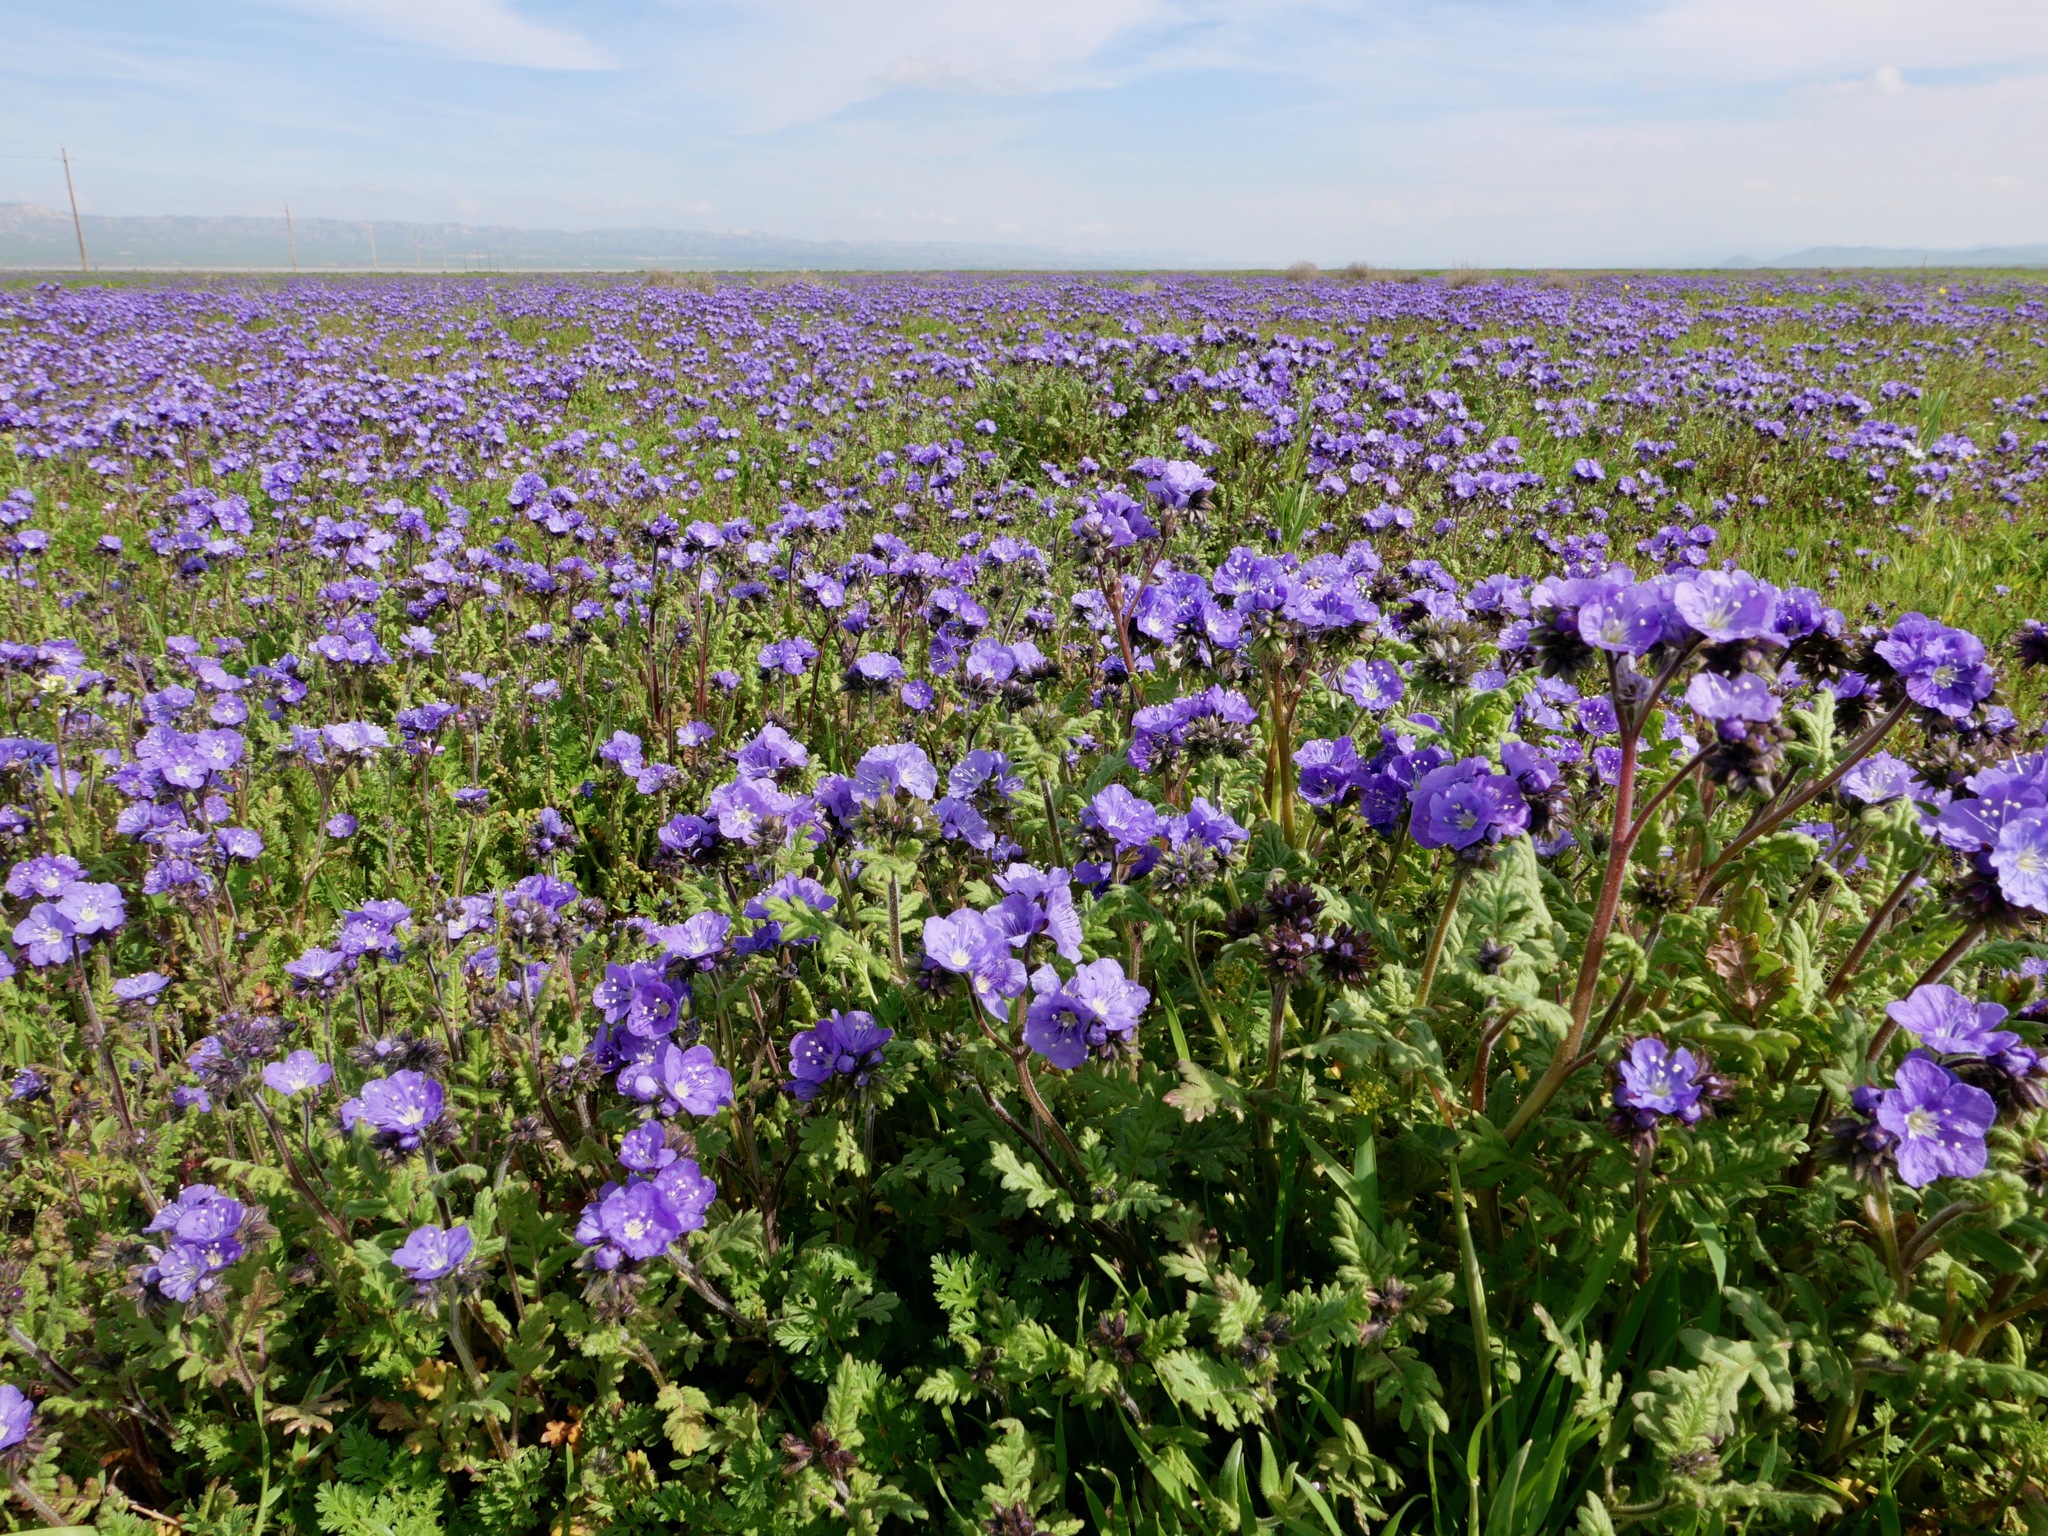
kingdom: Plantae
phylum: Tracheophyta
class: Magnoliopsida
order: Boraginales
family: Hydrophyllaceae
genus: Phacelia
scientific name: Phacelia ciliata
